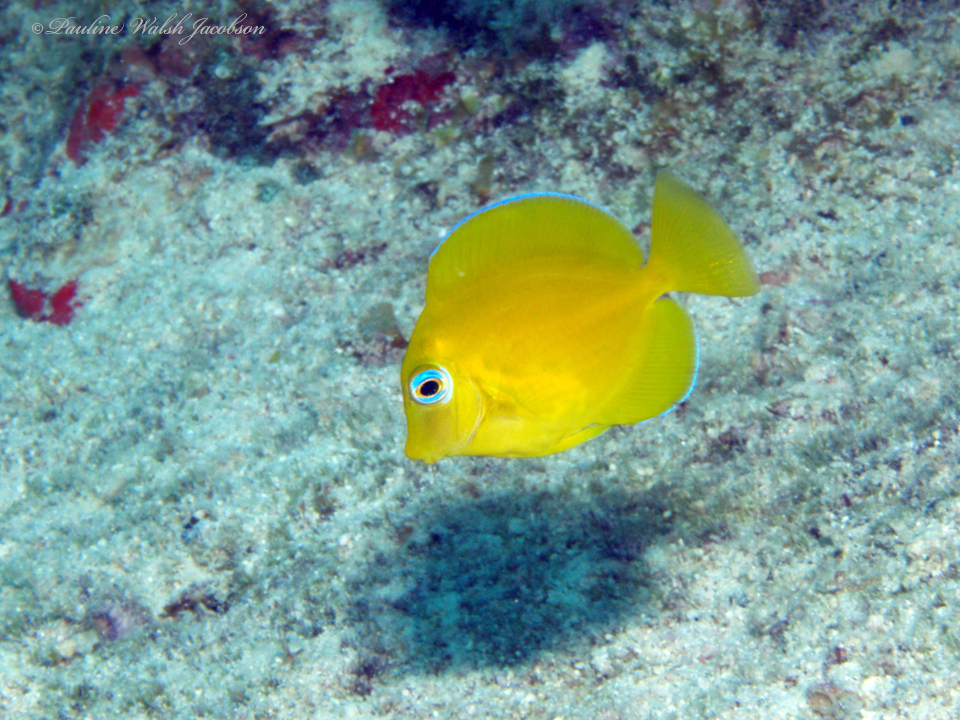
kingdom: Animalia
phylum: Chordata
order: Perciformes
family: Acanthuridae
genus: Acanthurus
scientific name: Acanthurus coeruleus
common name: Blue tang
